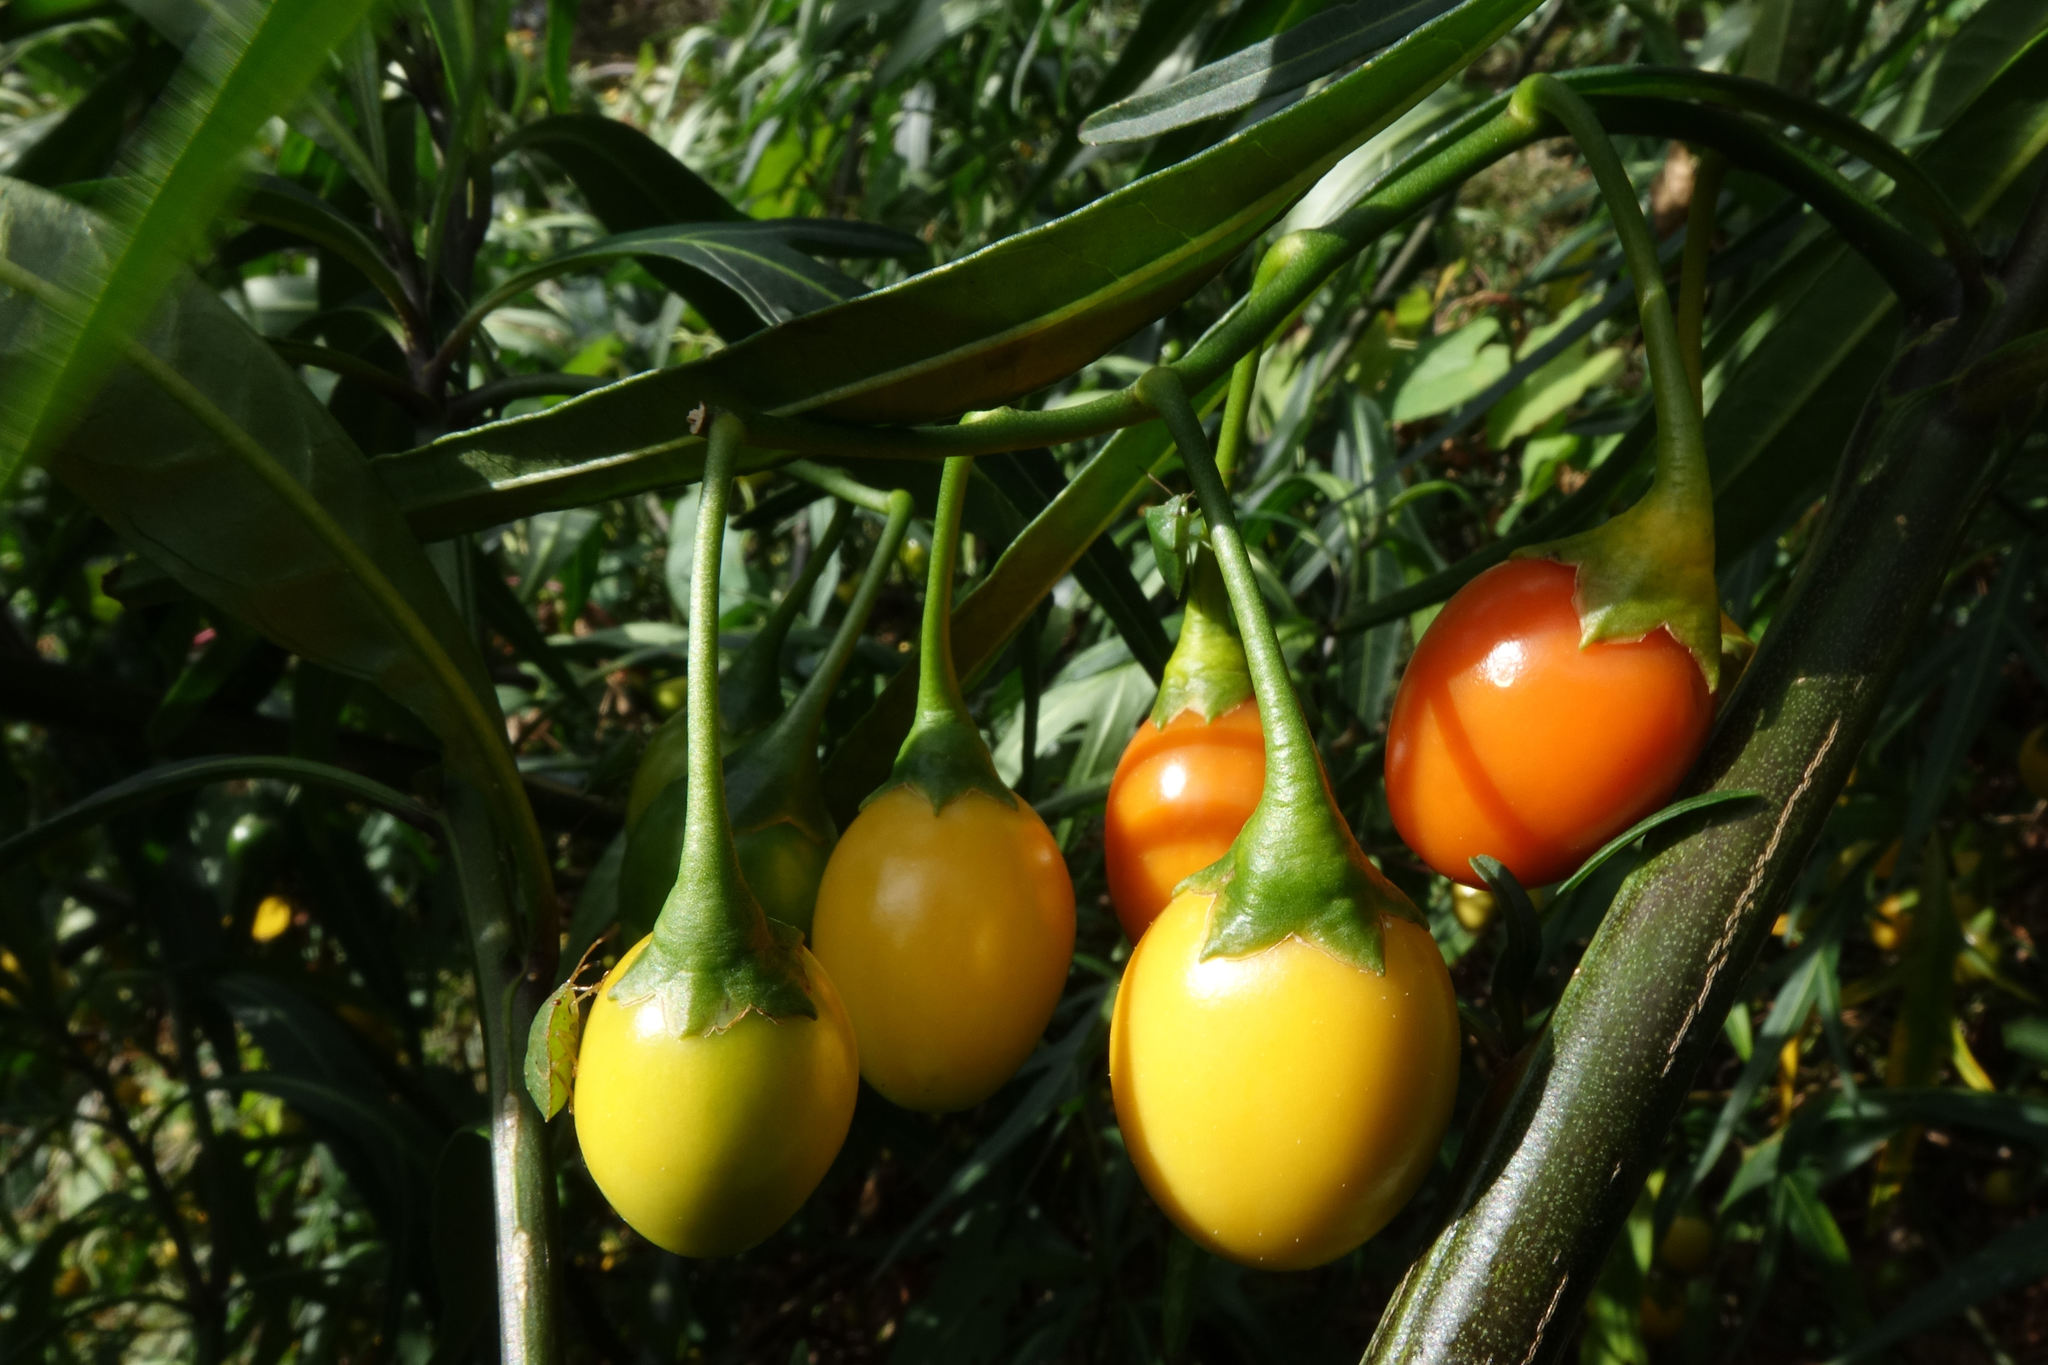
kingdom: Plantae
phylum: Tracheophyta
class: Magnoliopsida
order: Solanales
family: Solanaceae
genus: Solanum
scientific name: Solanum laciniatum
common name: Kangaroo-apple
